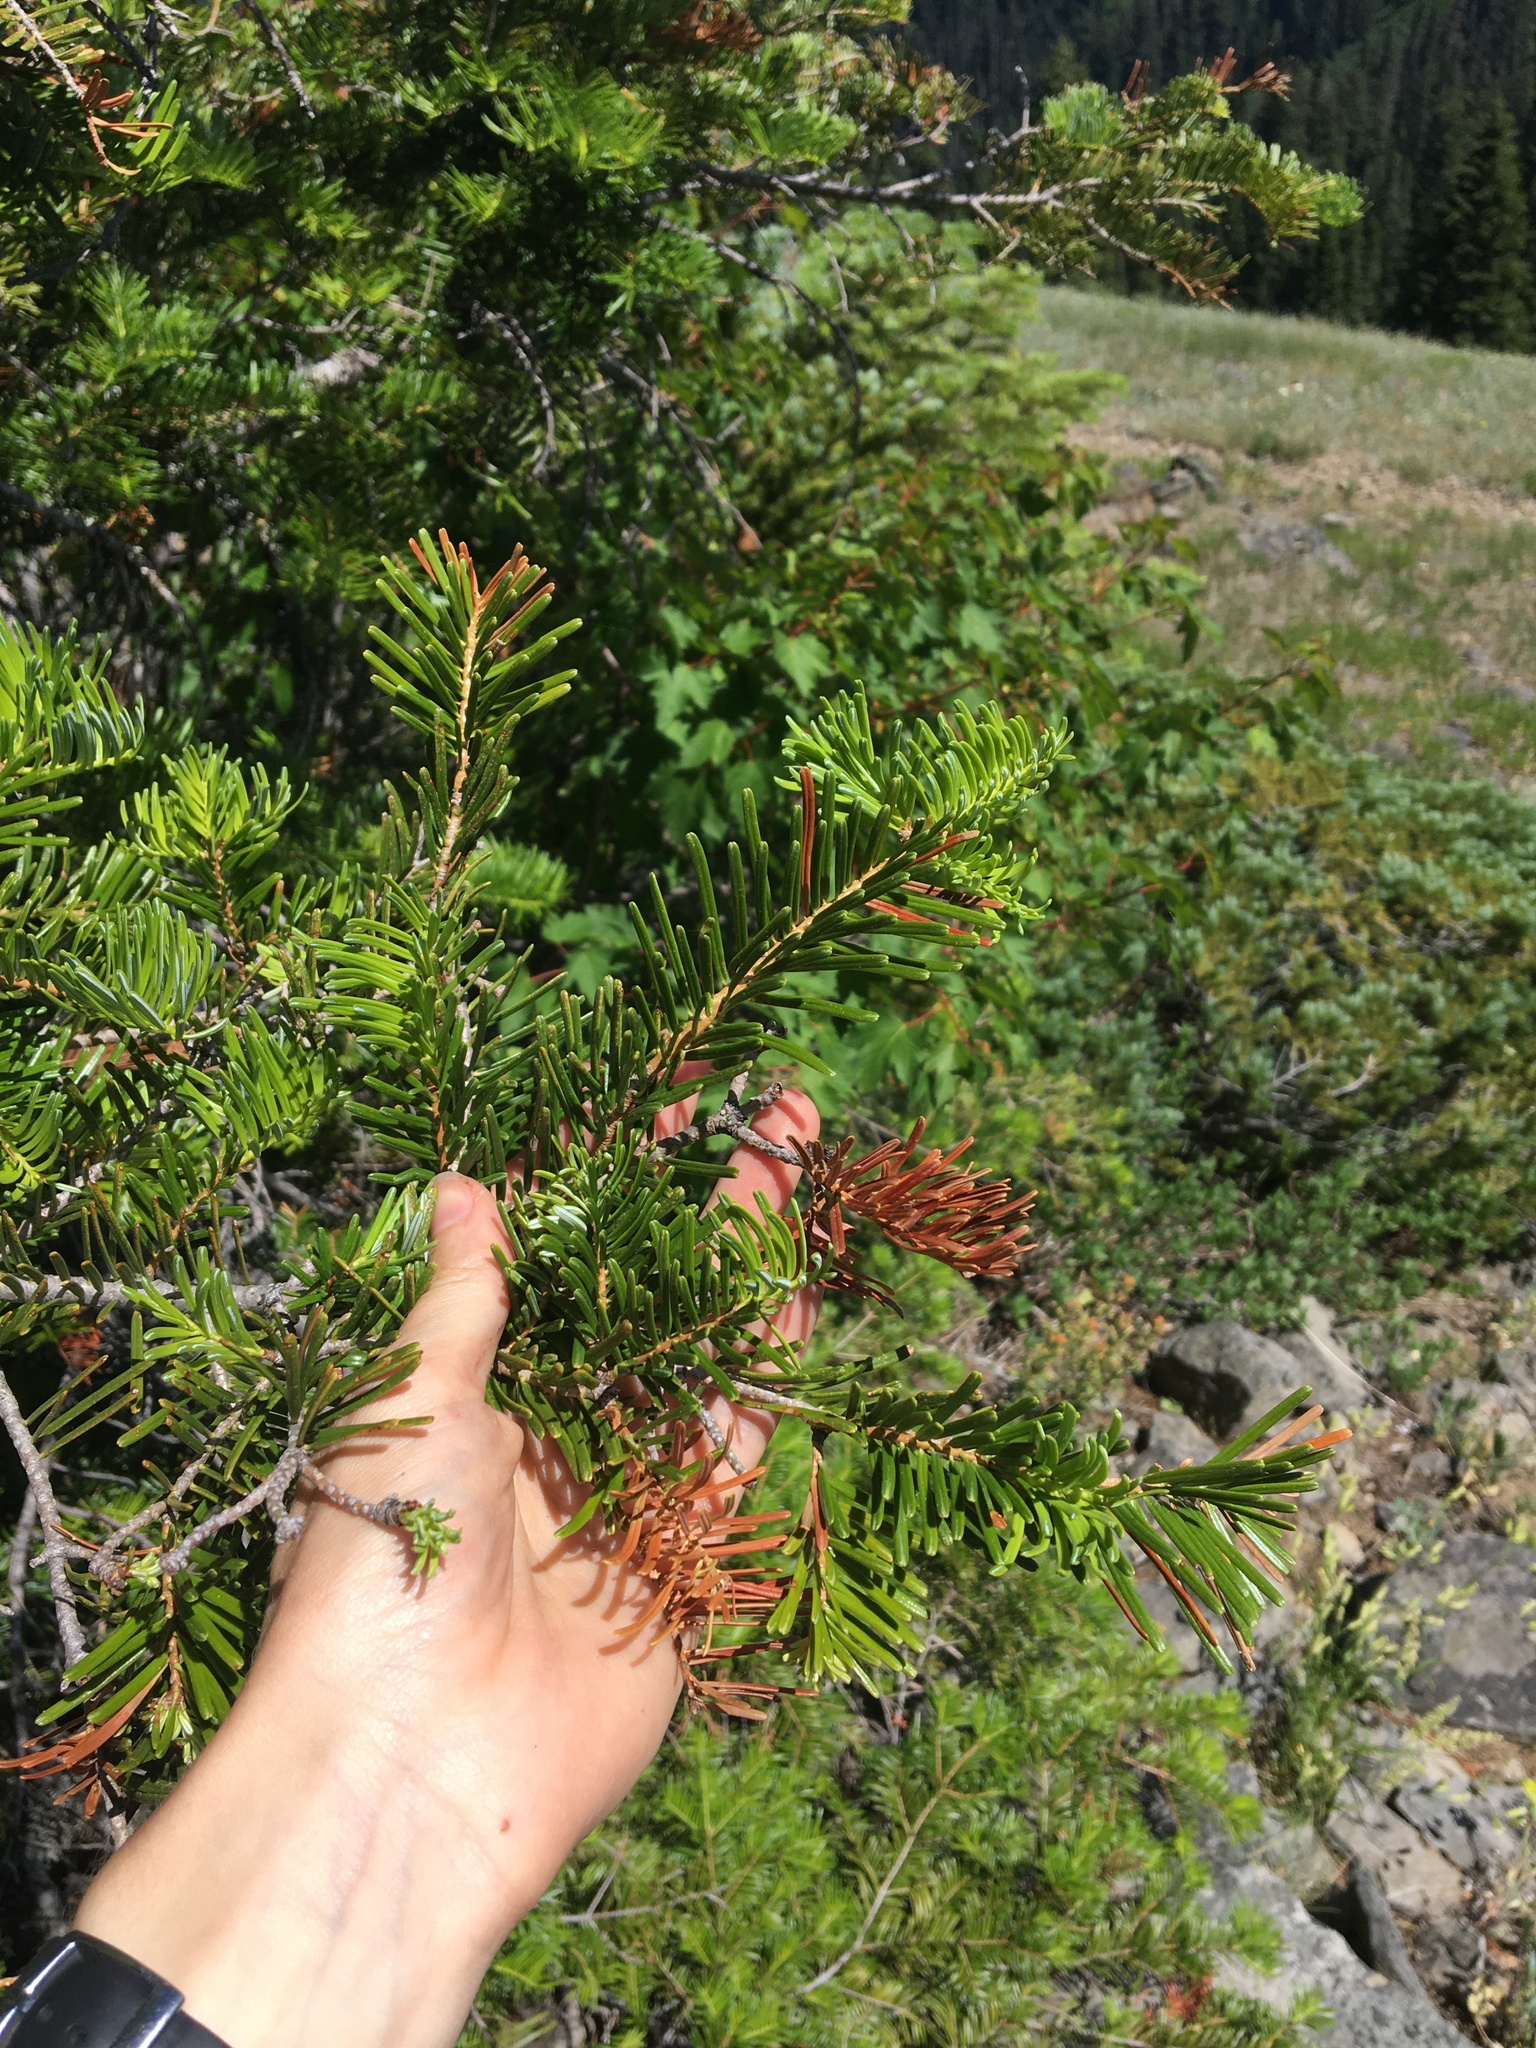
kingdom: Plantae
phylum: Tracheophyta
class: Pinopsida
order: Pinales
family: Pinaceae
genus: Abies
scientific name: Abies amabilis
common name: Pacific silver fir
